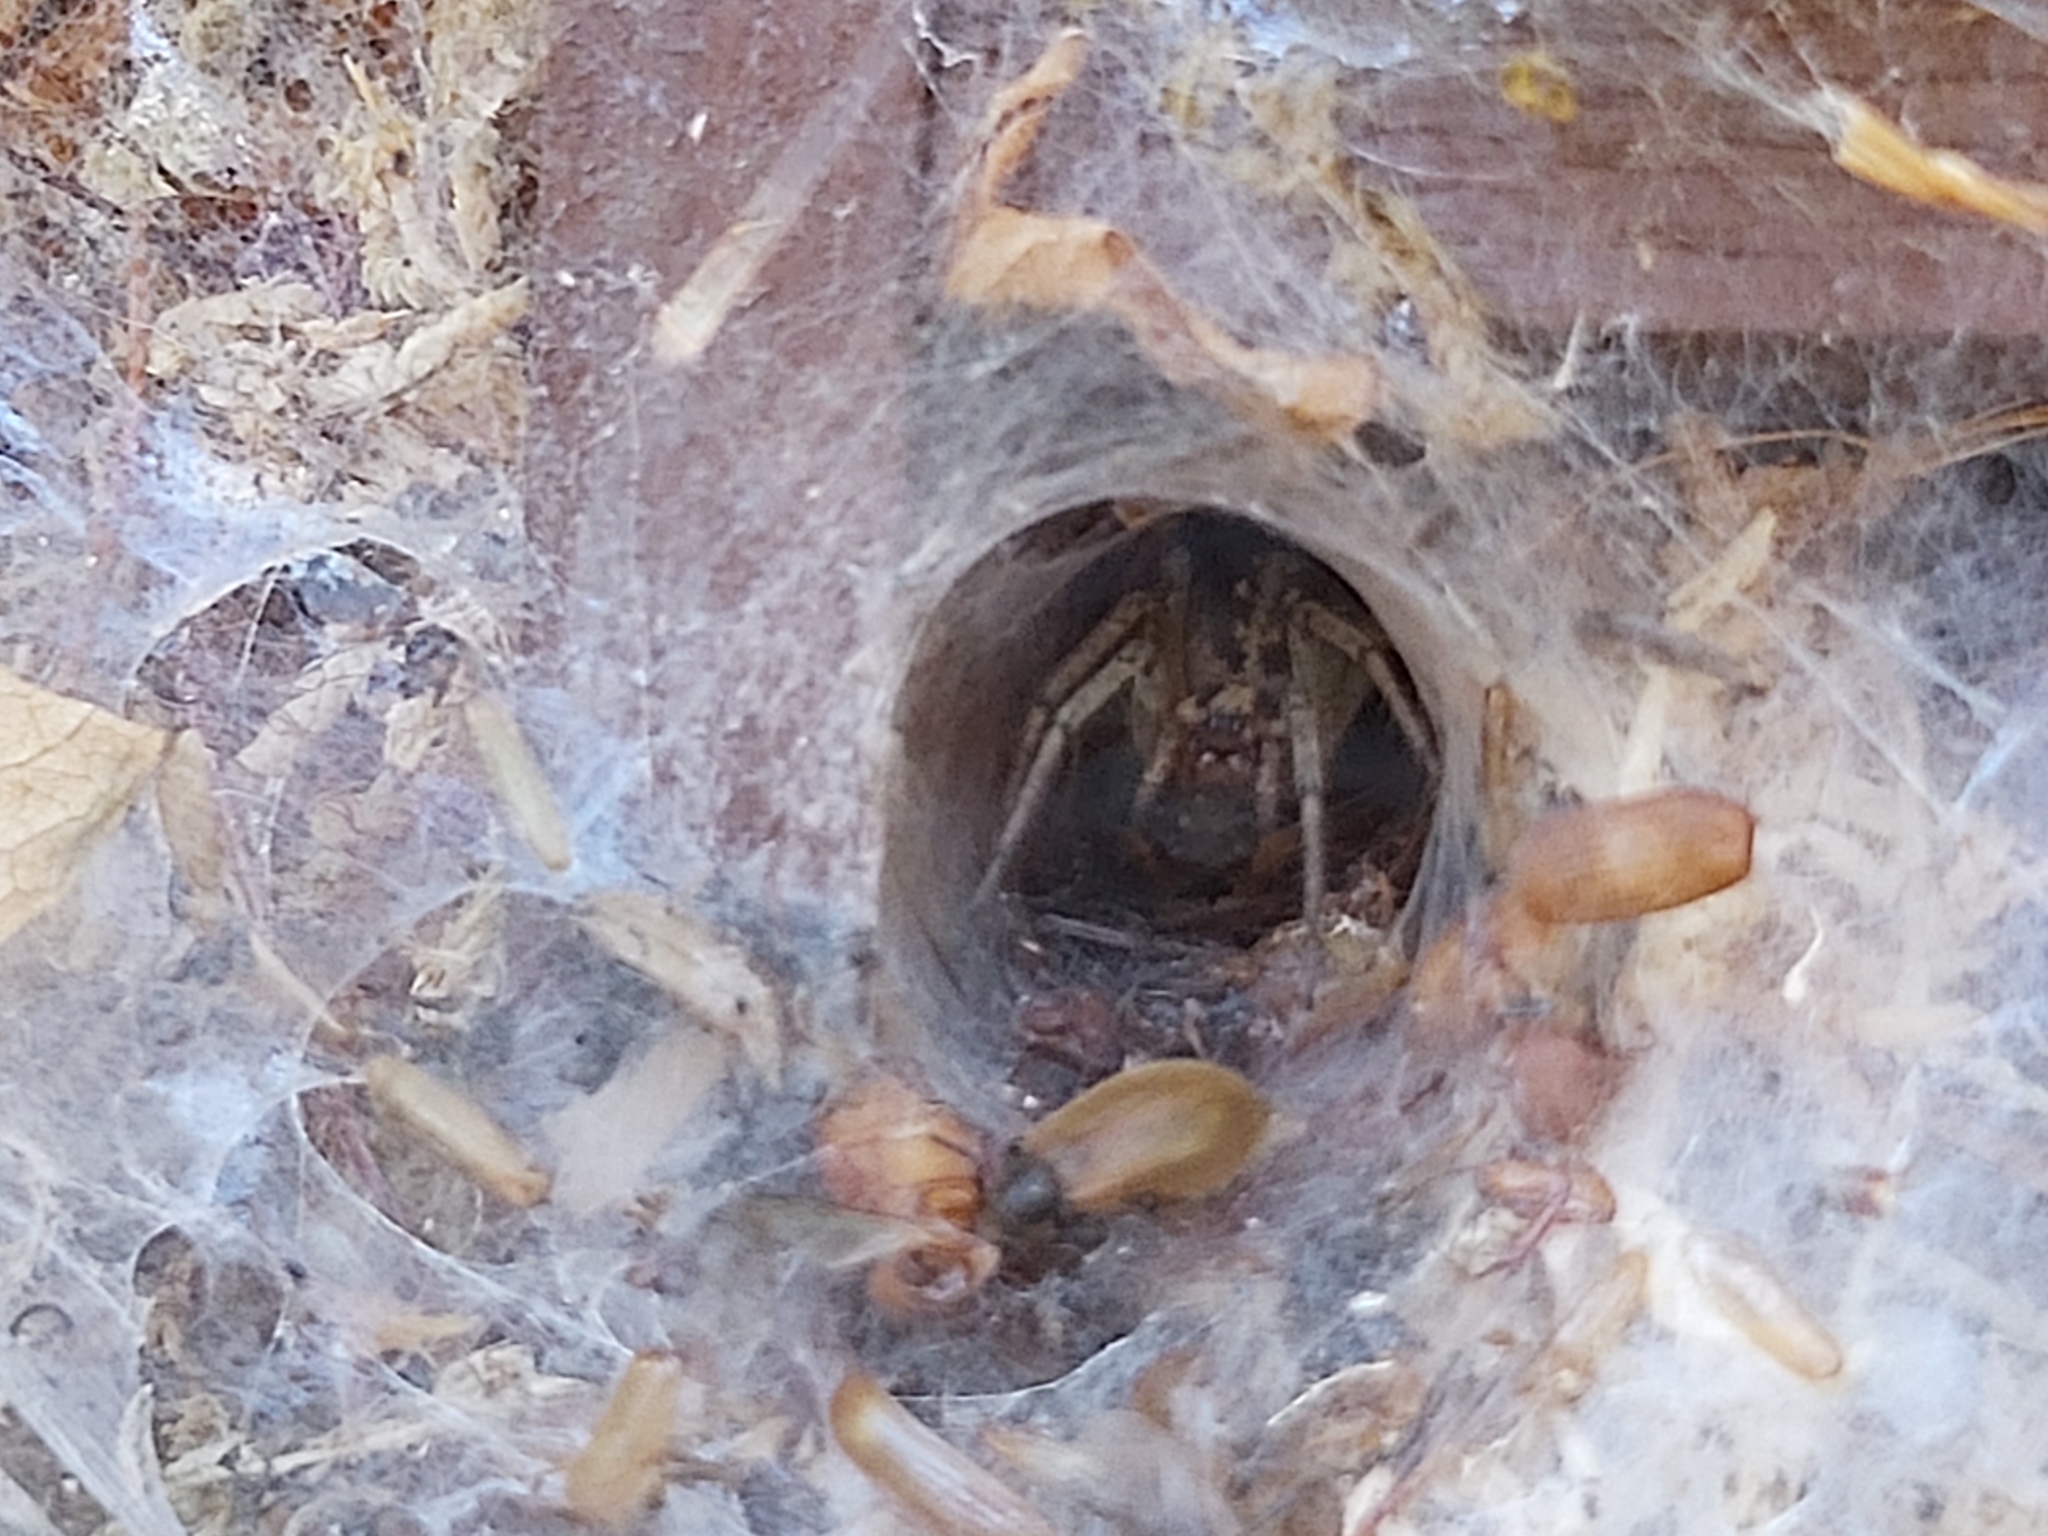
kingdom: Animalia
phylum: Arthropoda
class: Arachnida
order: Araneae
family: Agelenidae
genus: Agelena
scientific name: Agelena labyrinthica
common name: Labyrinth spider
